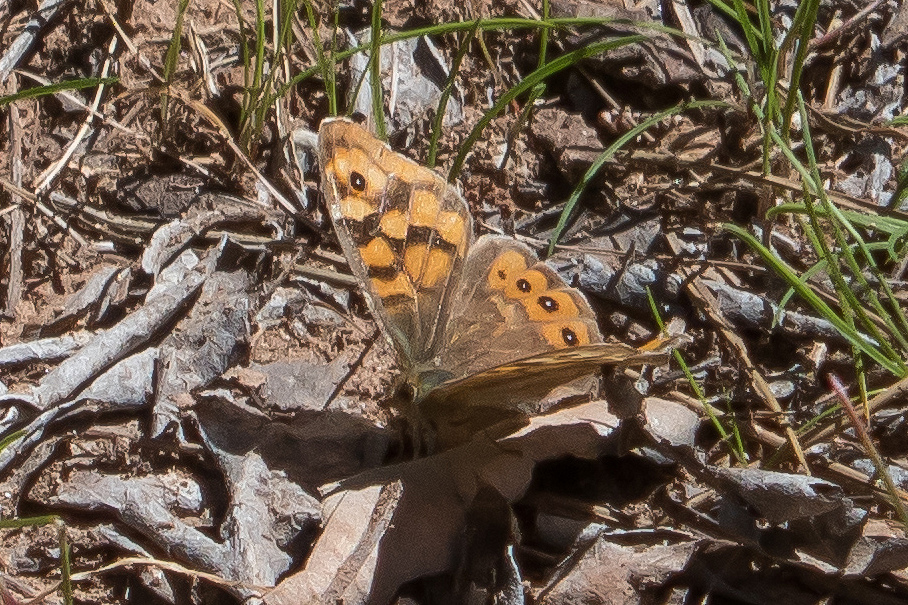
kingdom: Animalia
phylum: Arthropoda
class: Insecta
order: Lepidoptera
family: Nymphalidae
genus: Pararge
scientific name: Pararge aegeria
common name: Speckled wood
